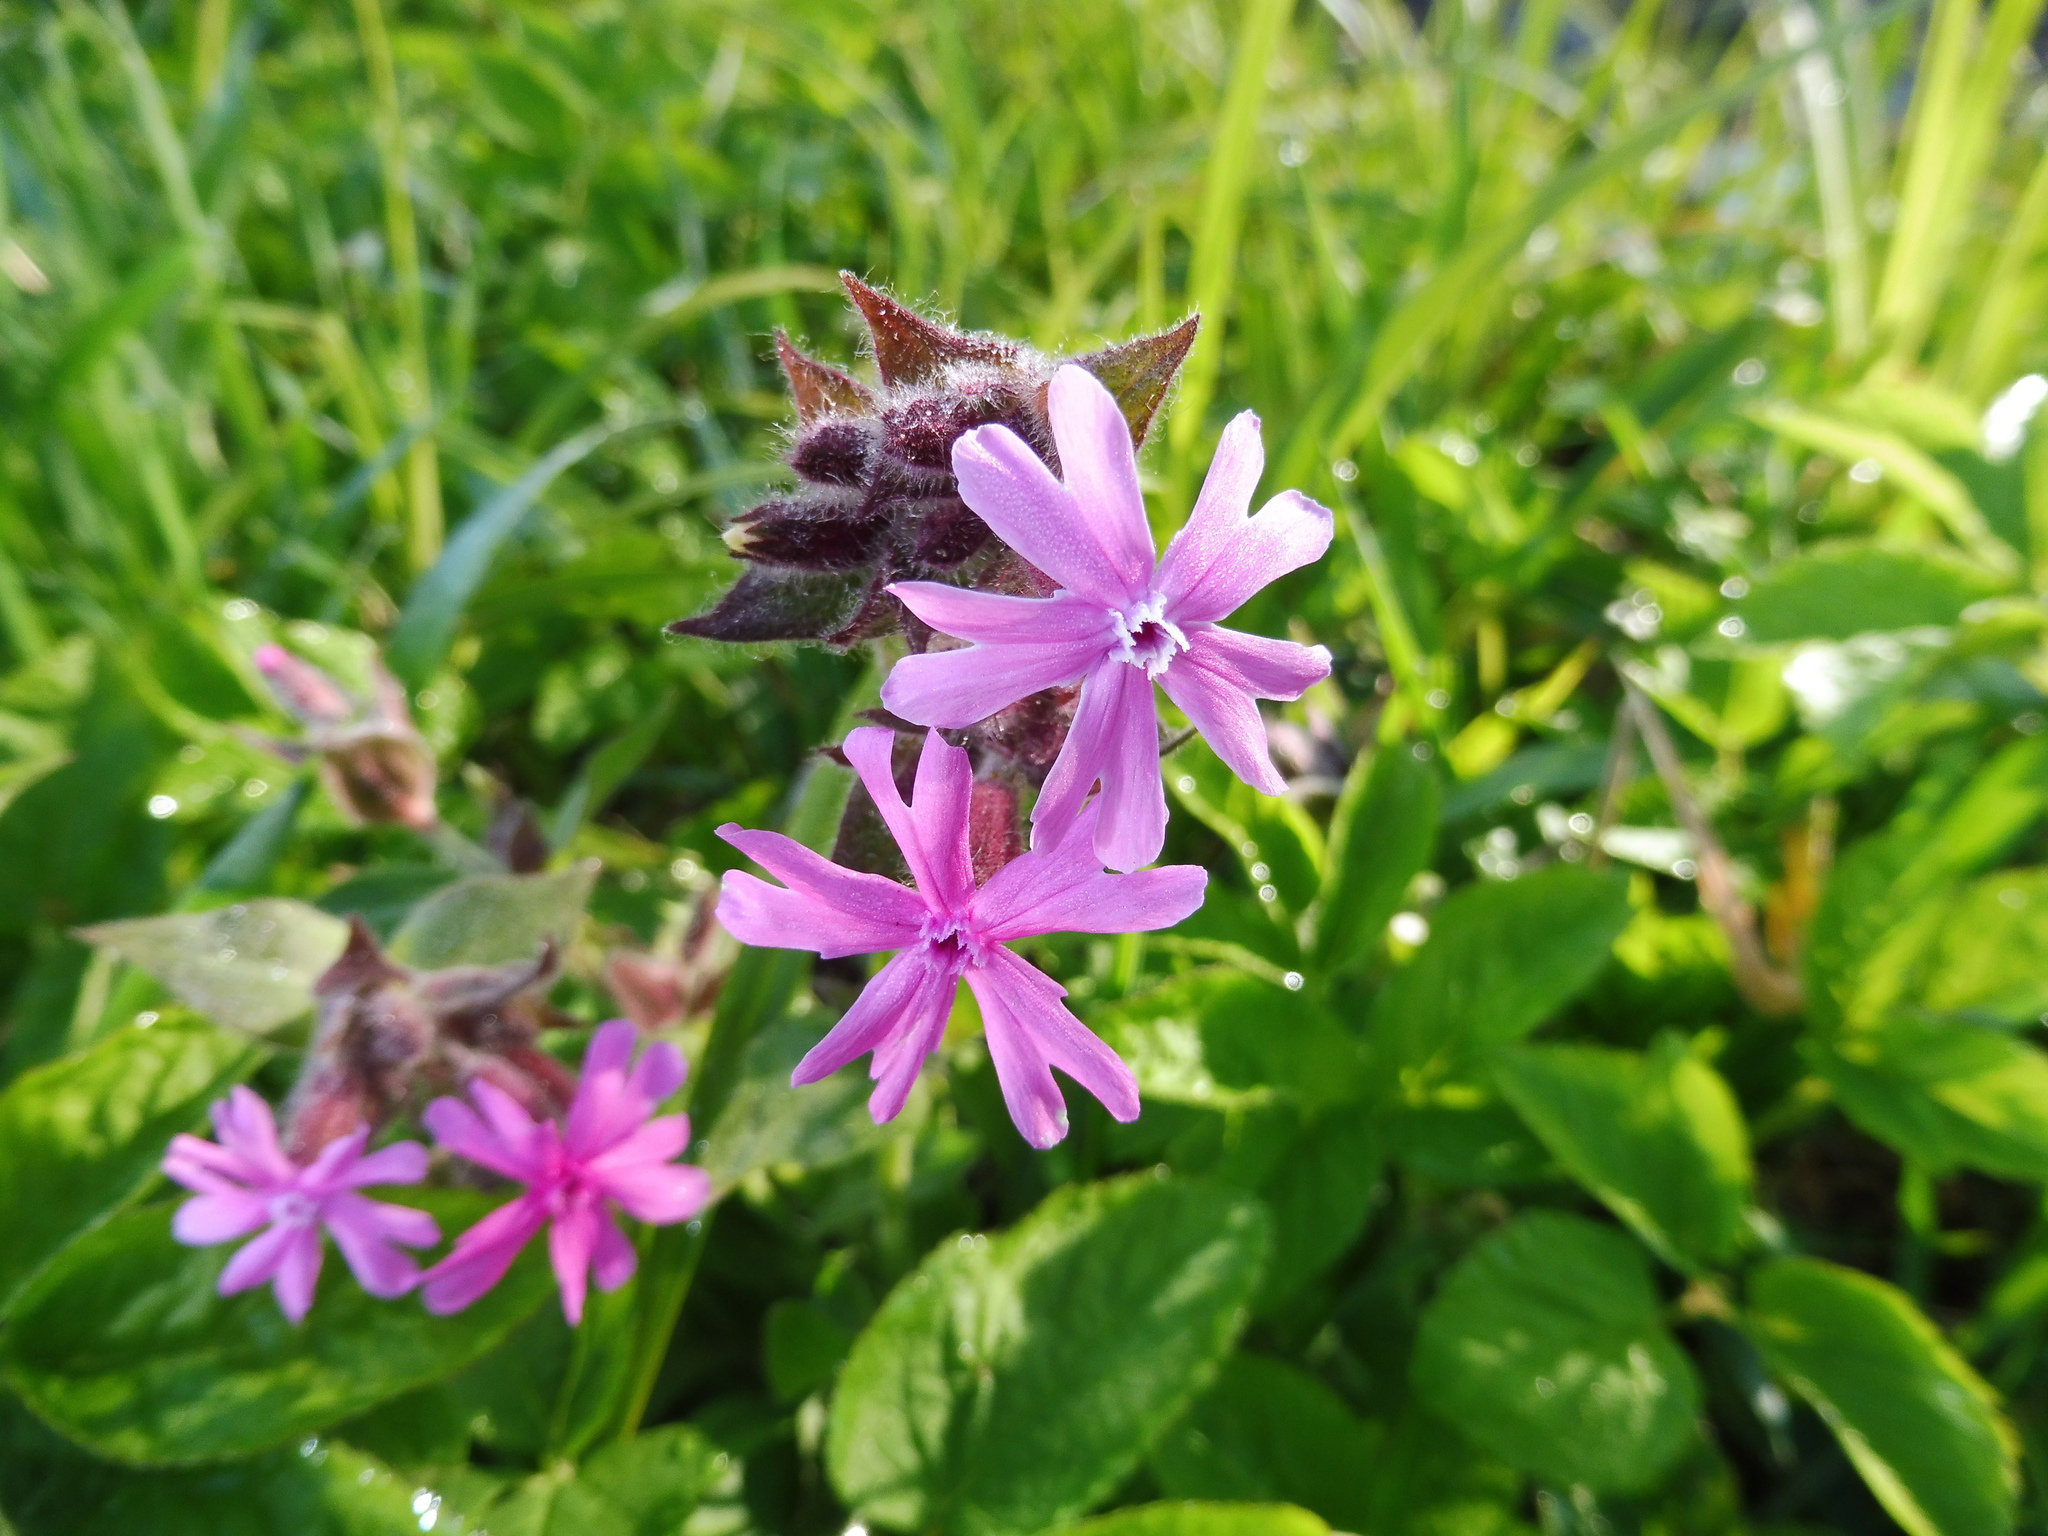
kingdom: Plantae
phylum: Tracheophyta
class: Magnoliopsida
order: Caryophyllales
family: Caryophyllaceae
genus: Silene
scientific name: Silene dioica
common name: Red campion
